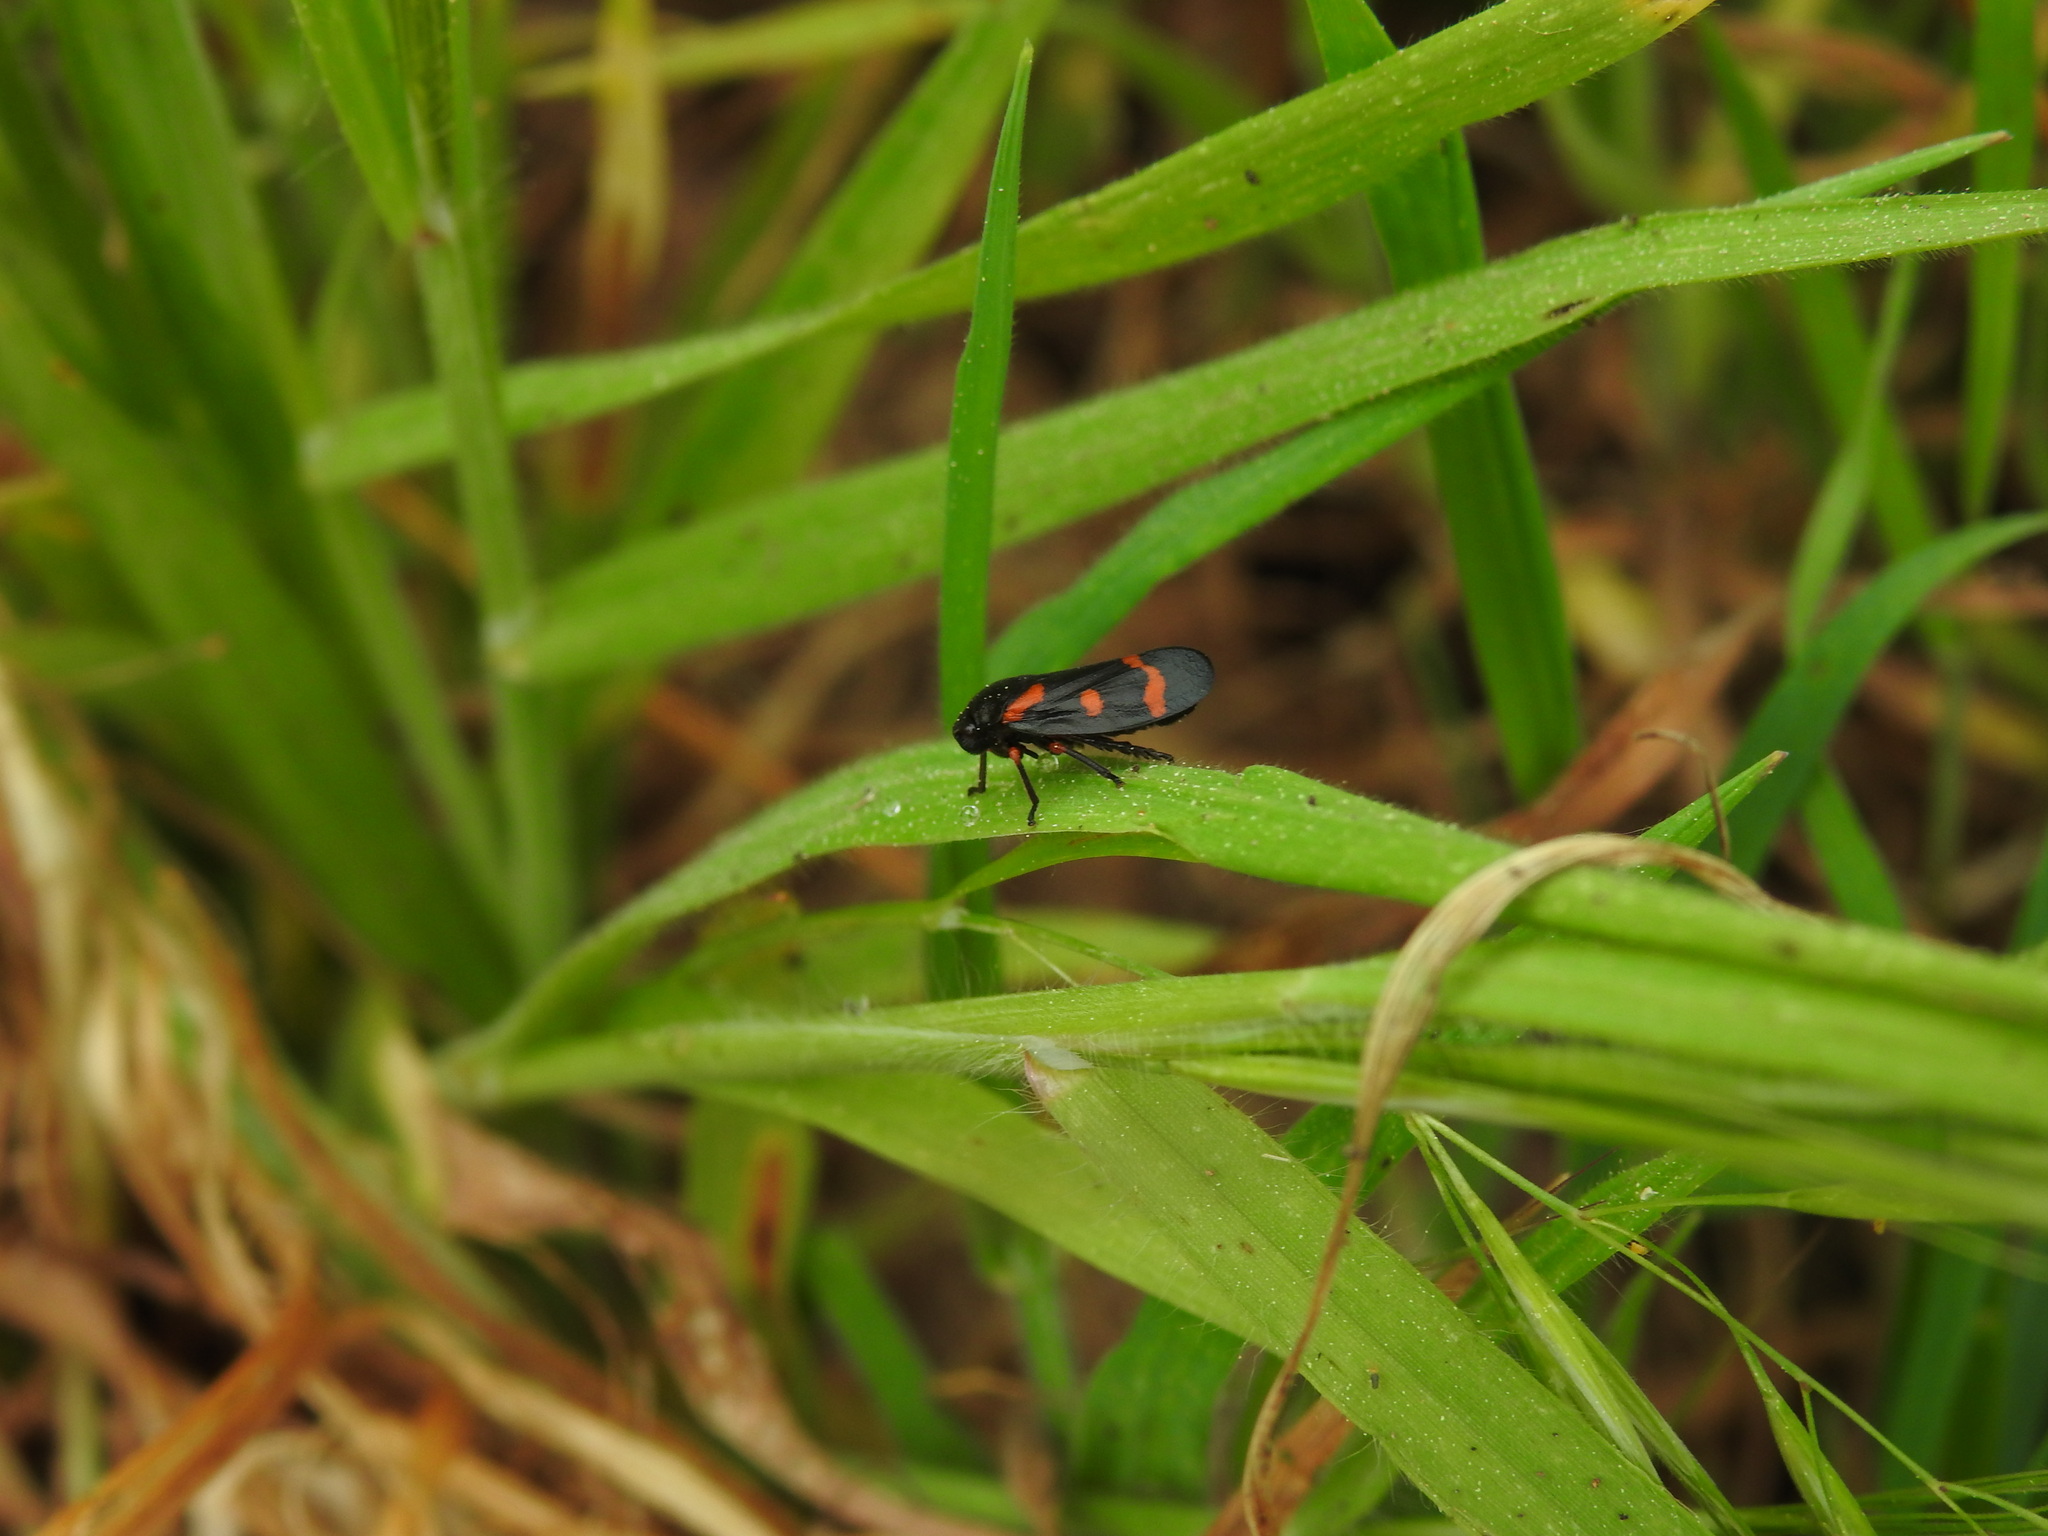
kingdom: Animalia
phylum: Arthropoda
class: Insecta
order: Hemiptera
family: Cercopidae
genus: Cercopis
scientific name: Cercopis intermedia
